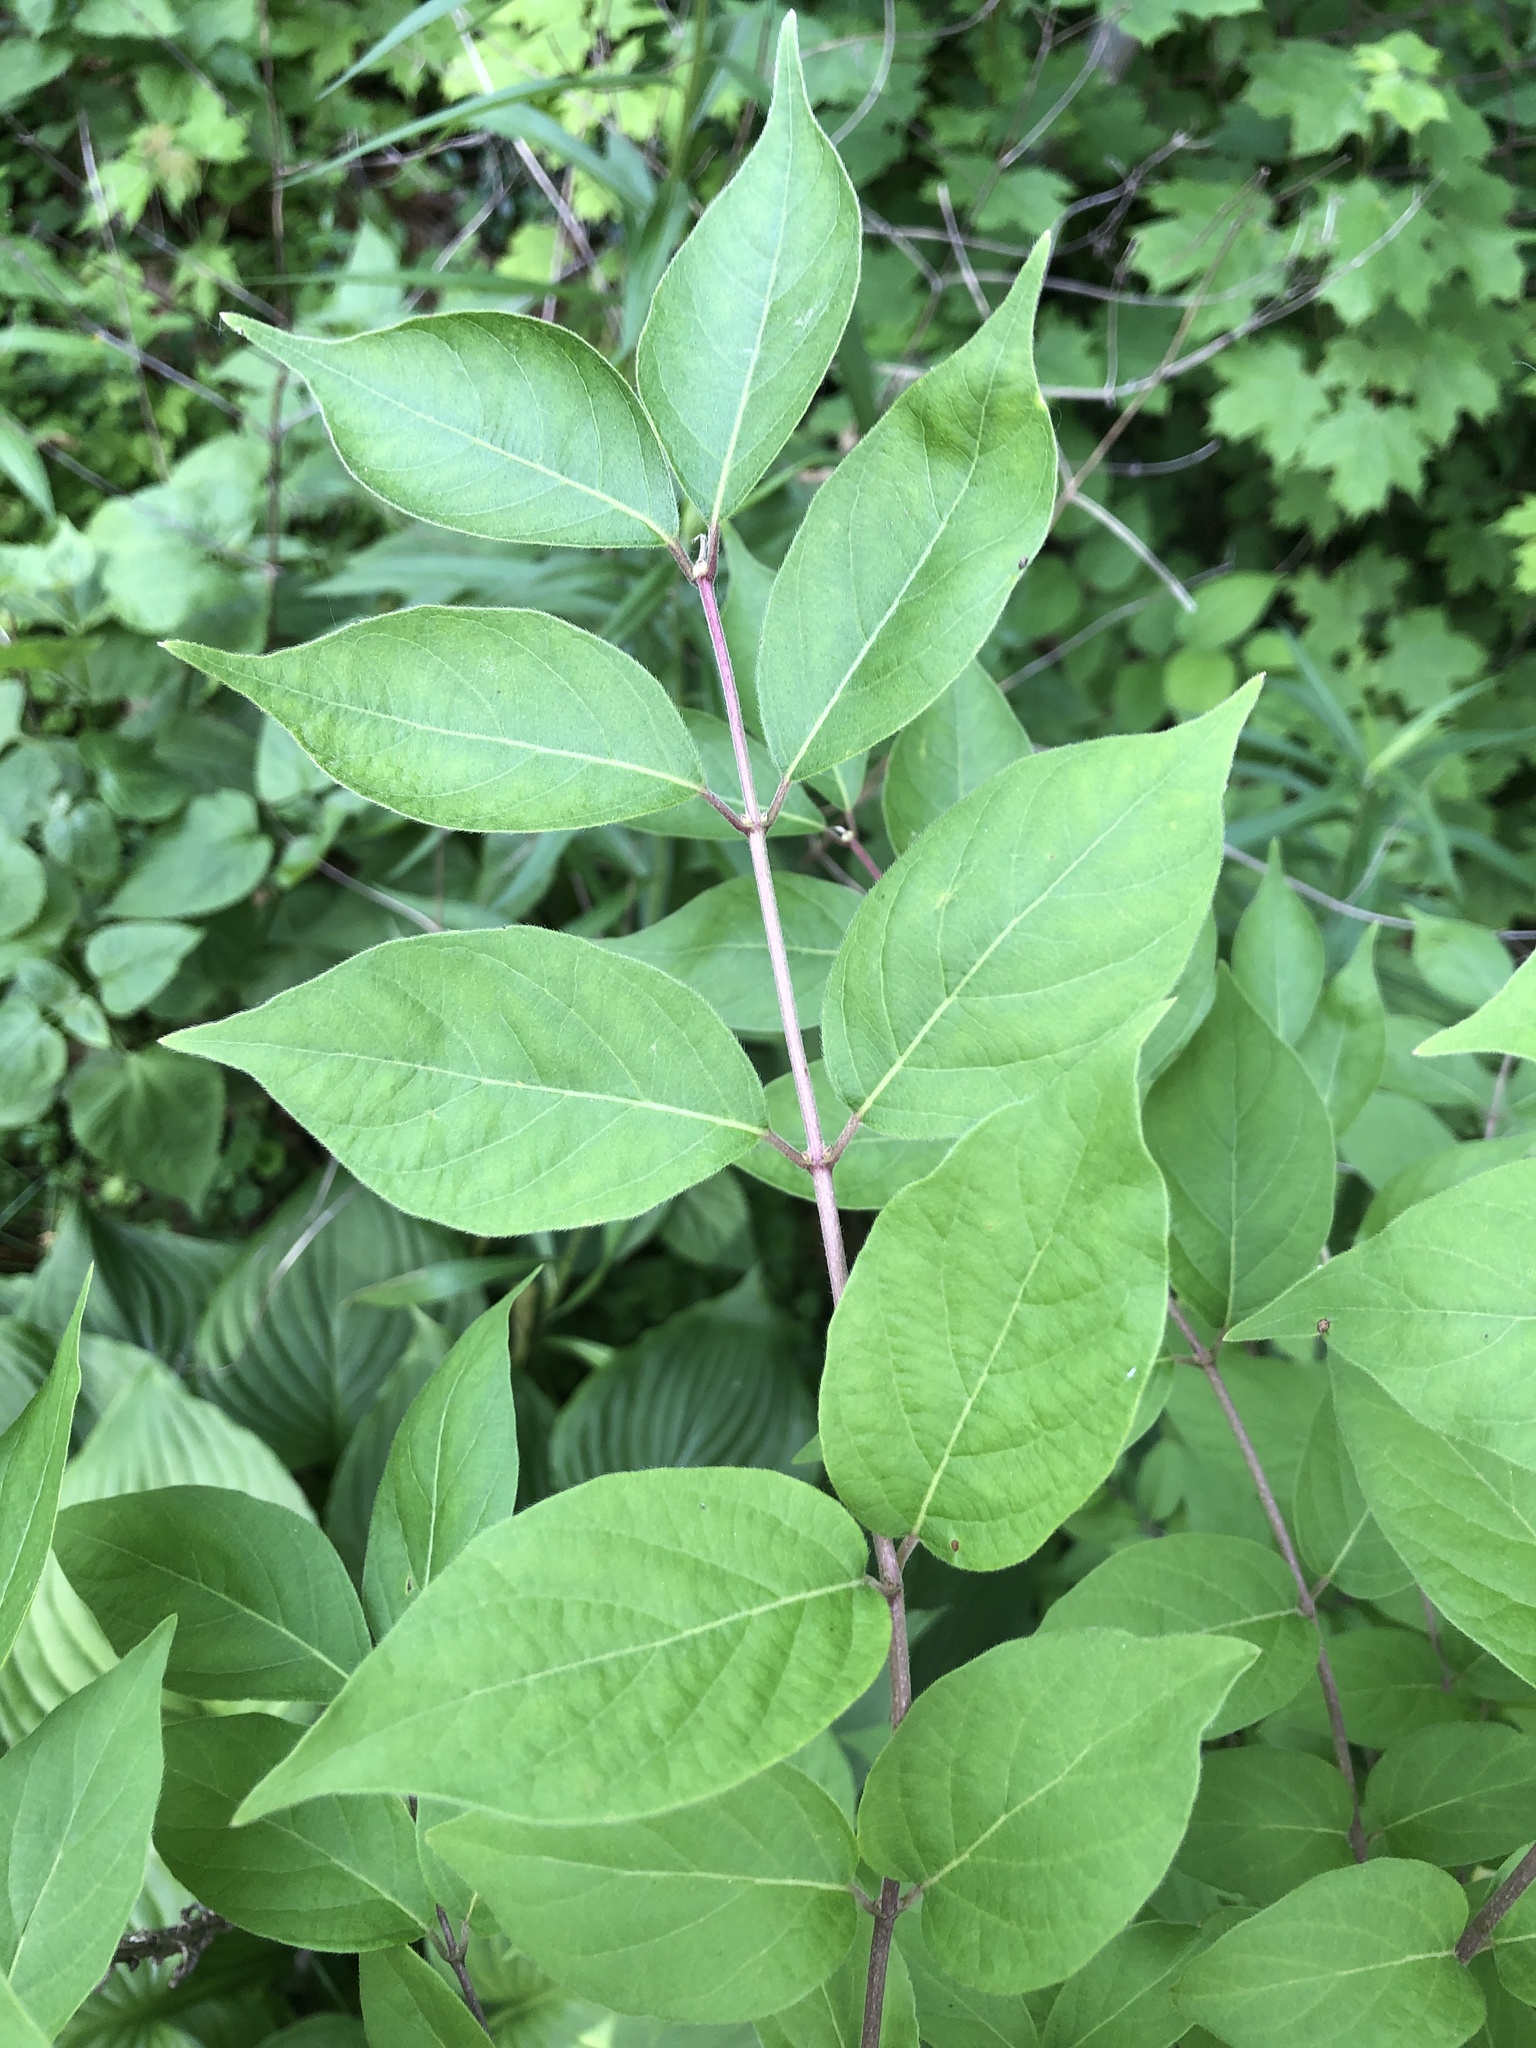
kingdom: Plantae
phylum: Tracheophyta
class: Magnoliopsida
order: Dipsacales
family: Caprifoliaceae
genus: Lonicera
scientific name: Lonicera maackii
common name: Amur honeysuckle
